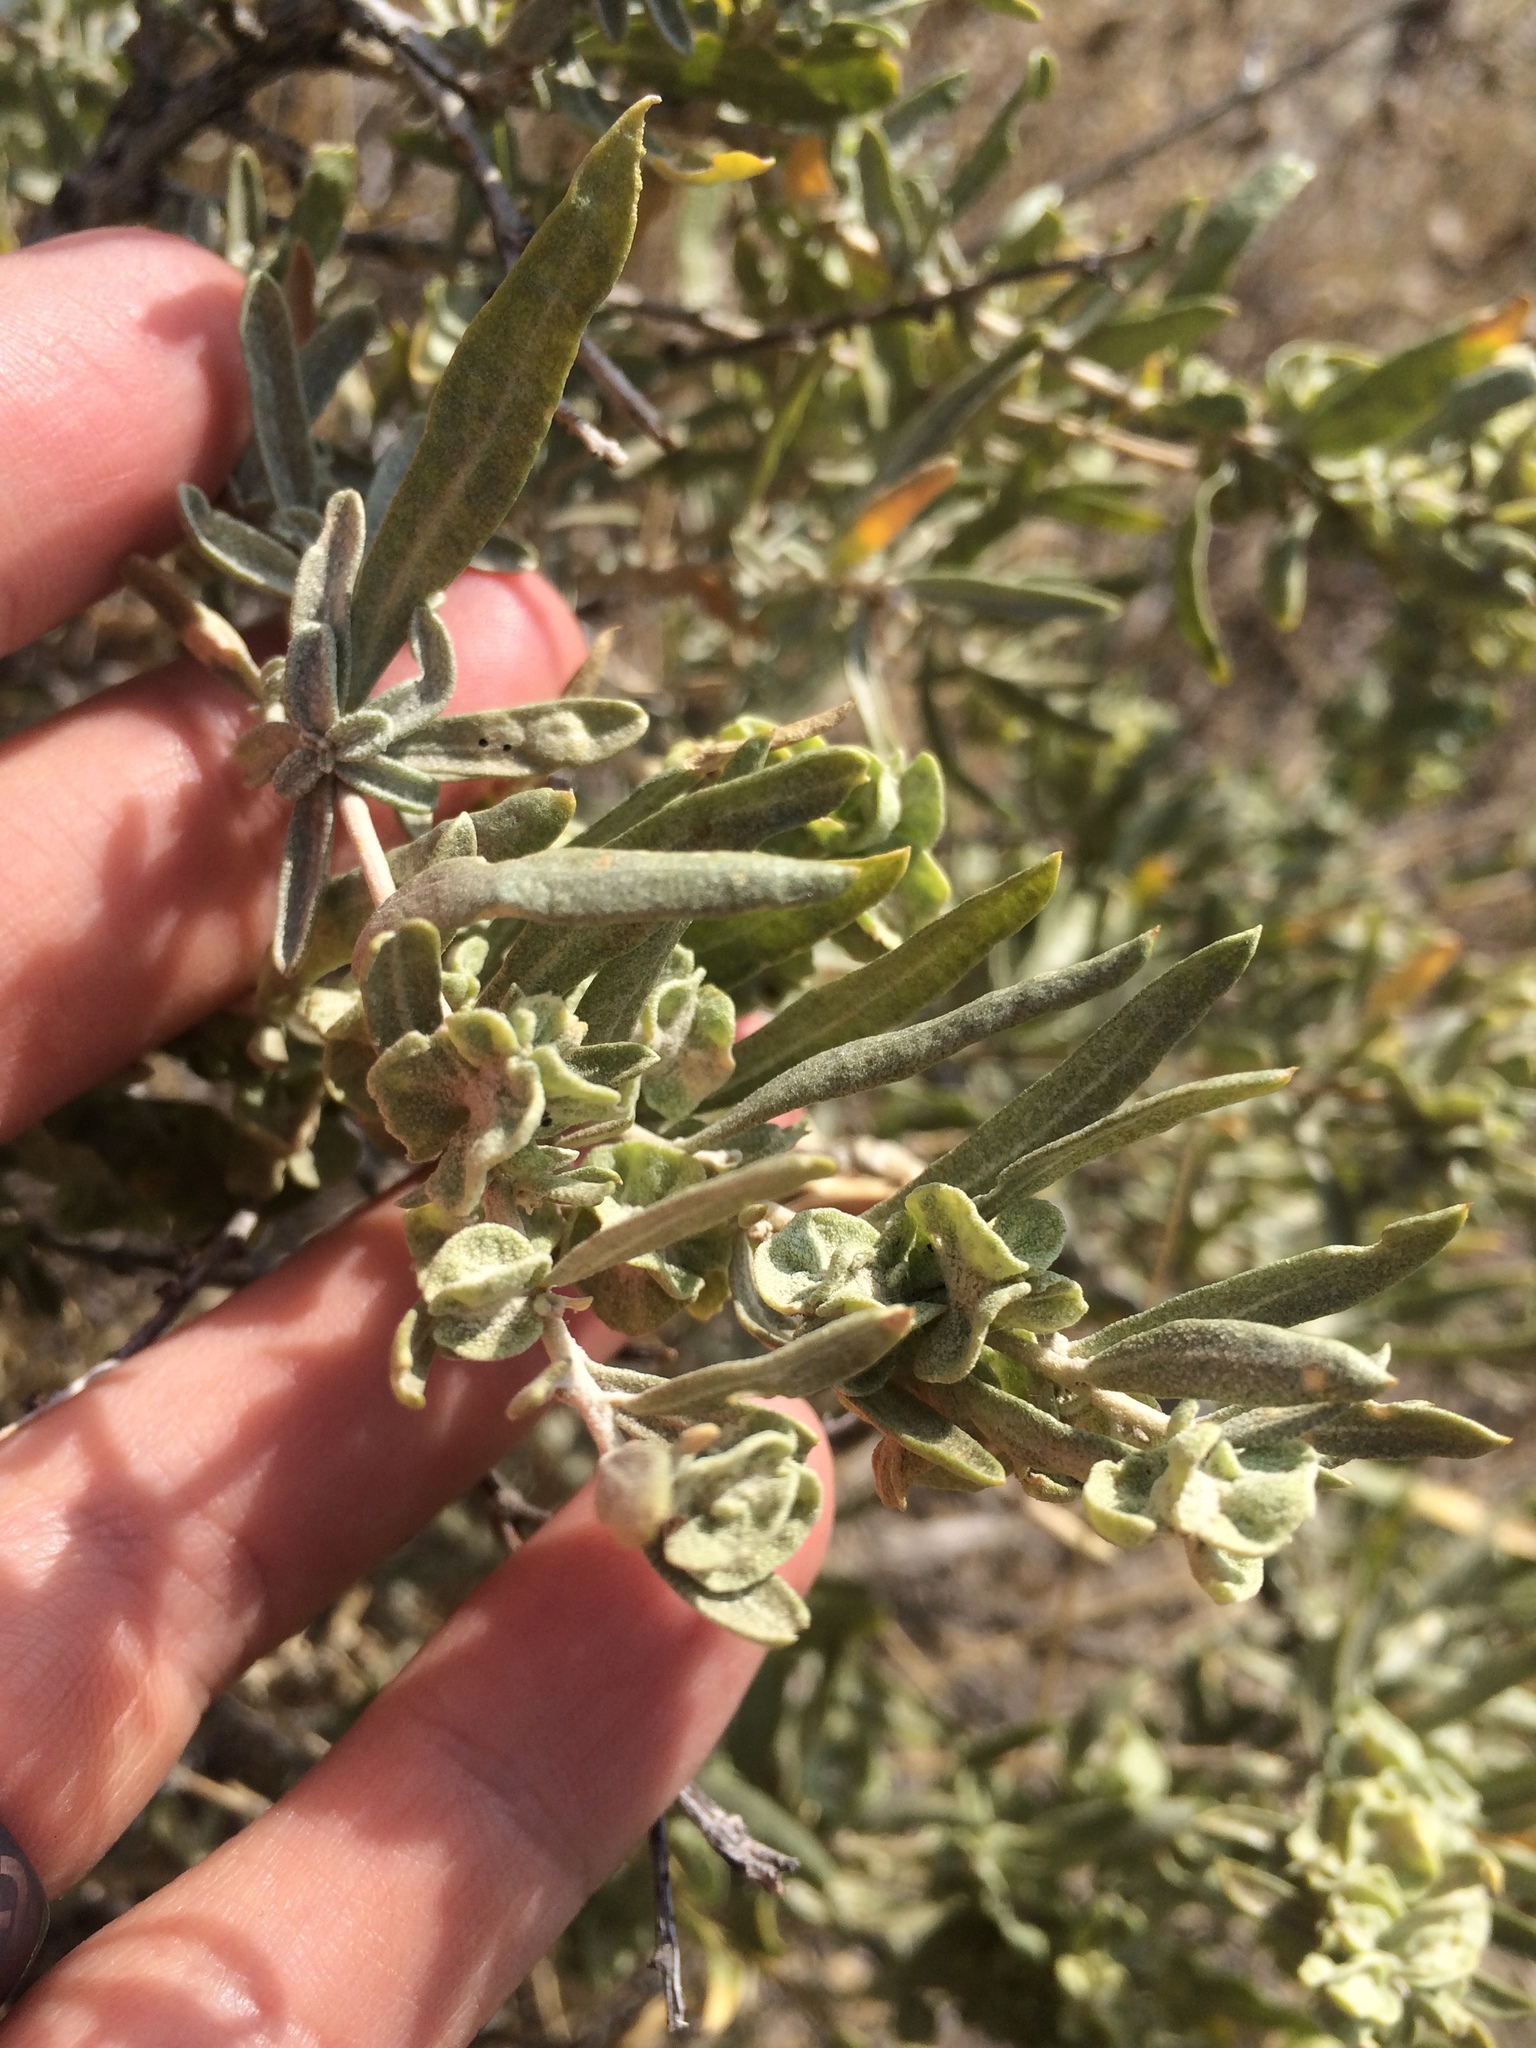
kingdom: Plantae
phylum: Tracheophyta
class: Magnoliopsida
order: Caryophyllales
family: Amaranthaceae
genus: Atriplex
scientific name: Atriplex canescens
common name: Four-wing saltbush
